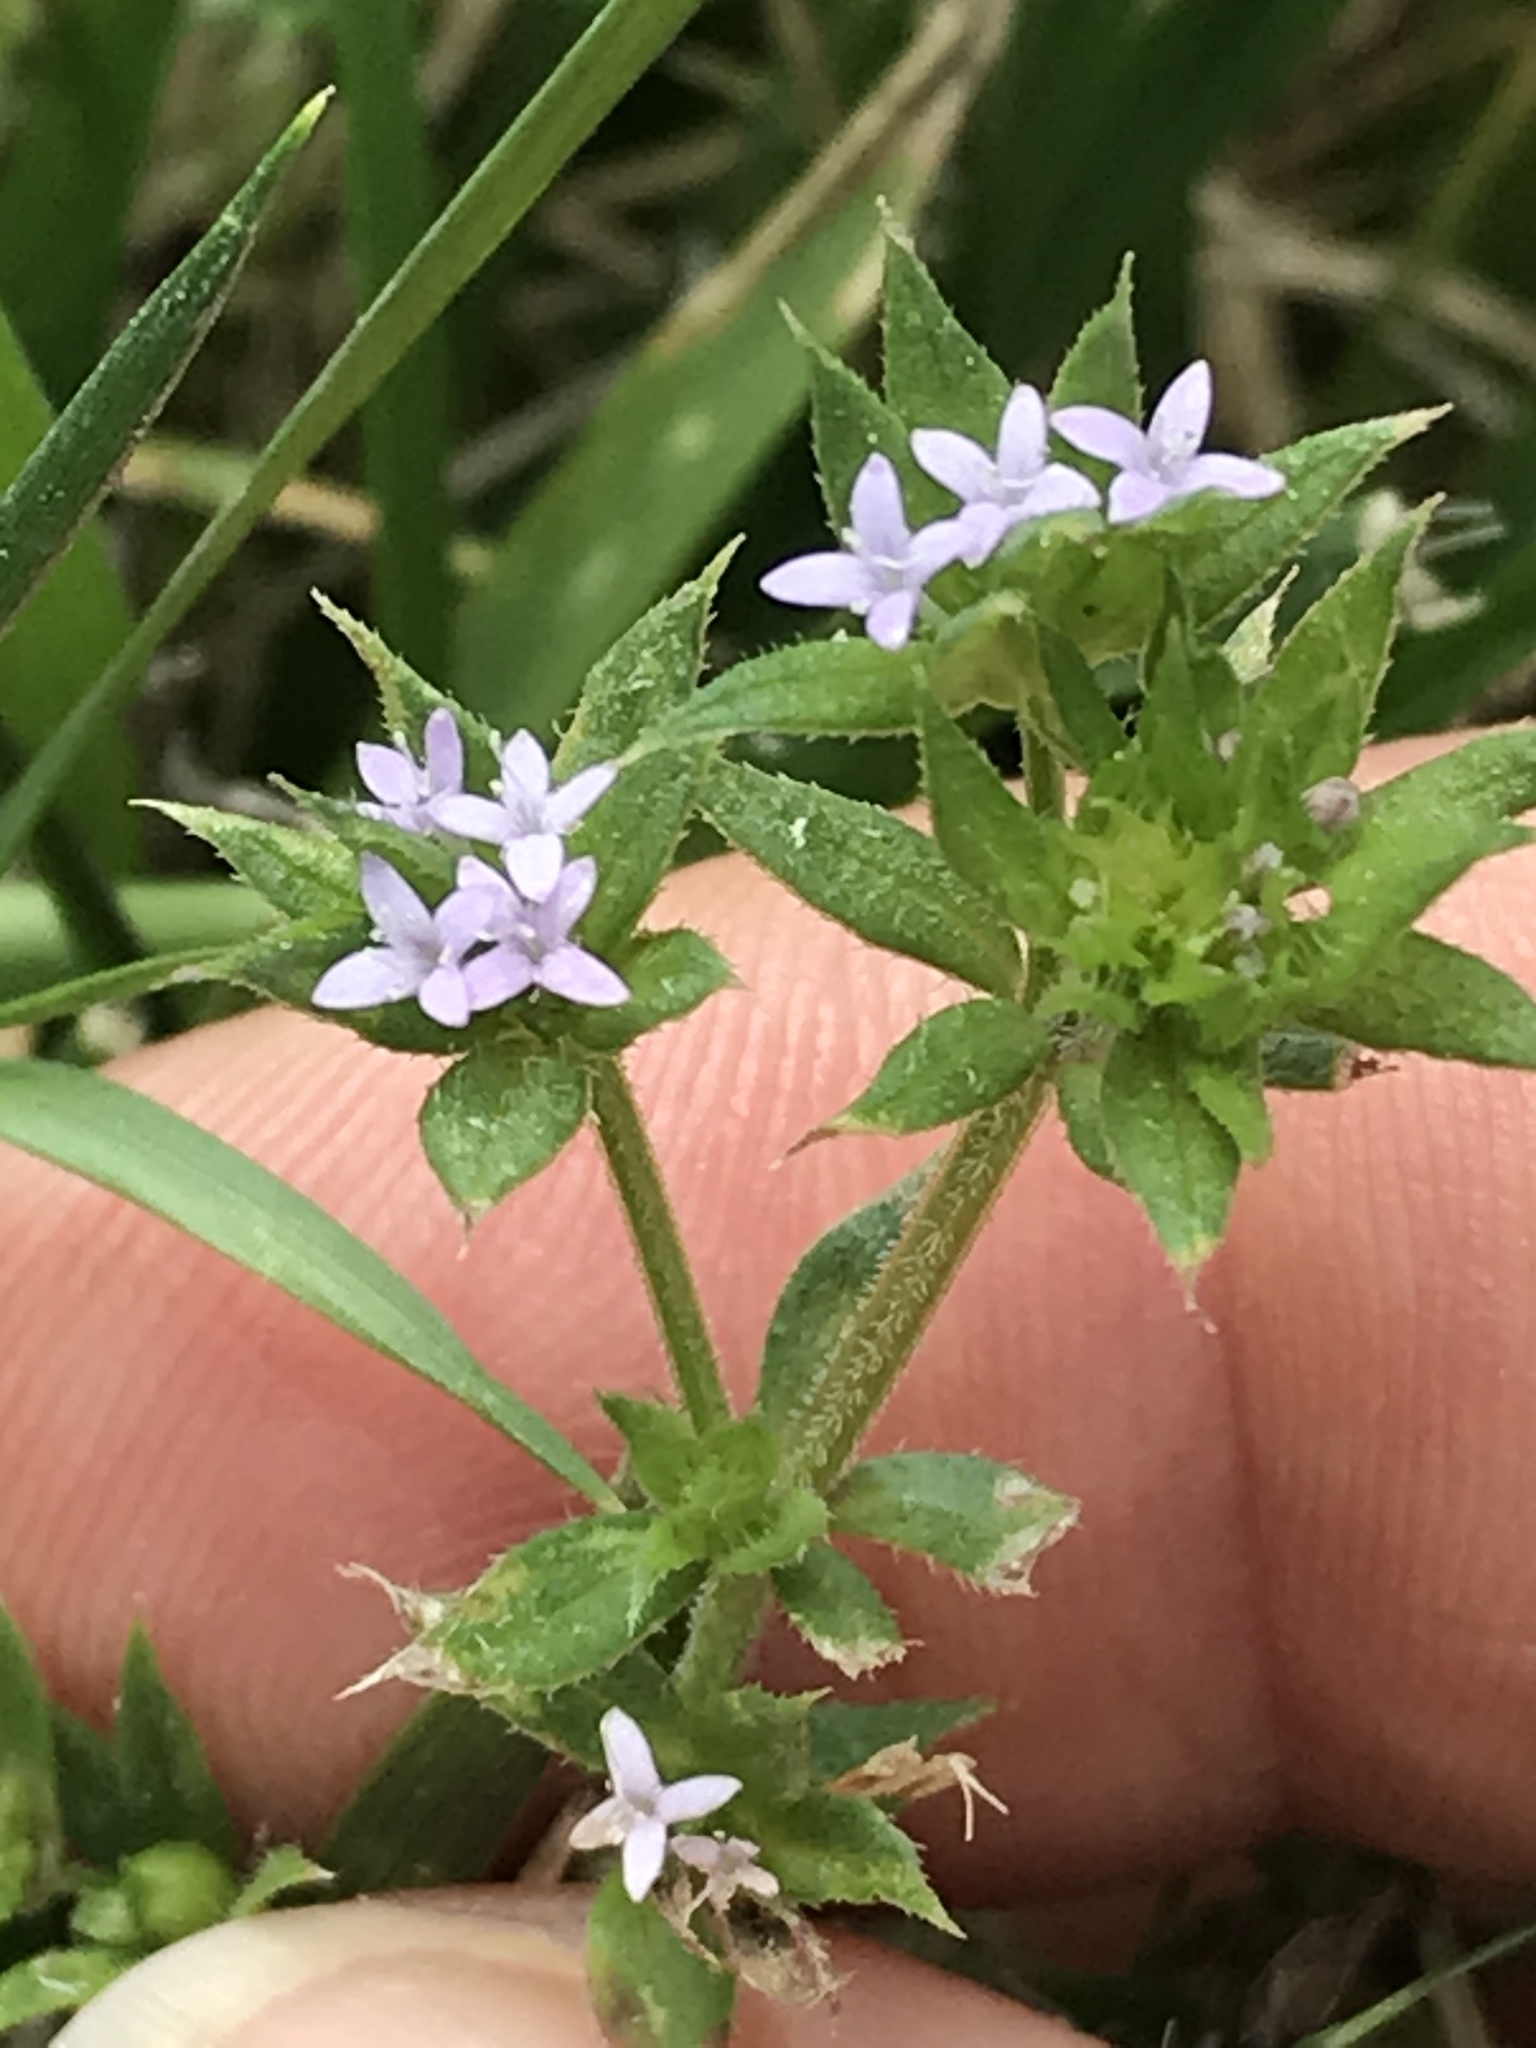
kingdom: Plantae
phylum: Tracheophyta
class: Magnoliopsida
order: Gentianales
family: Rubiaceae
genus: Sherardia
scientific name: Sherardia arvensis
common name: Field madder
